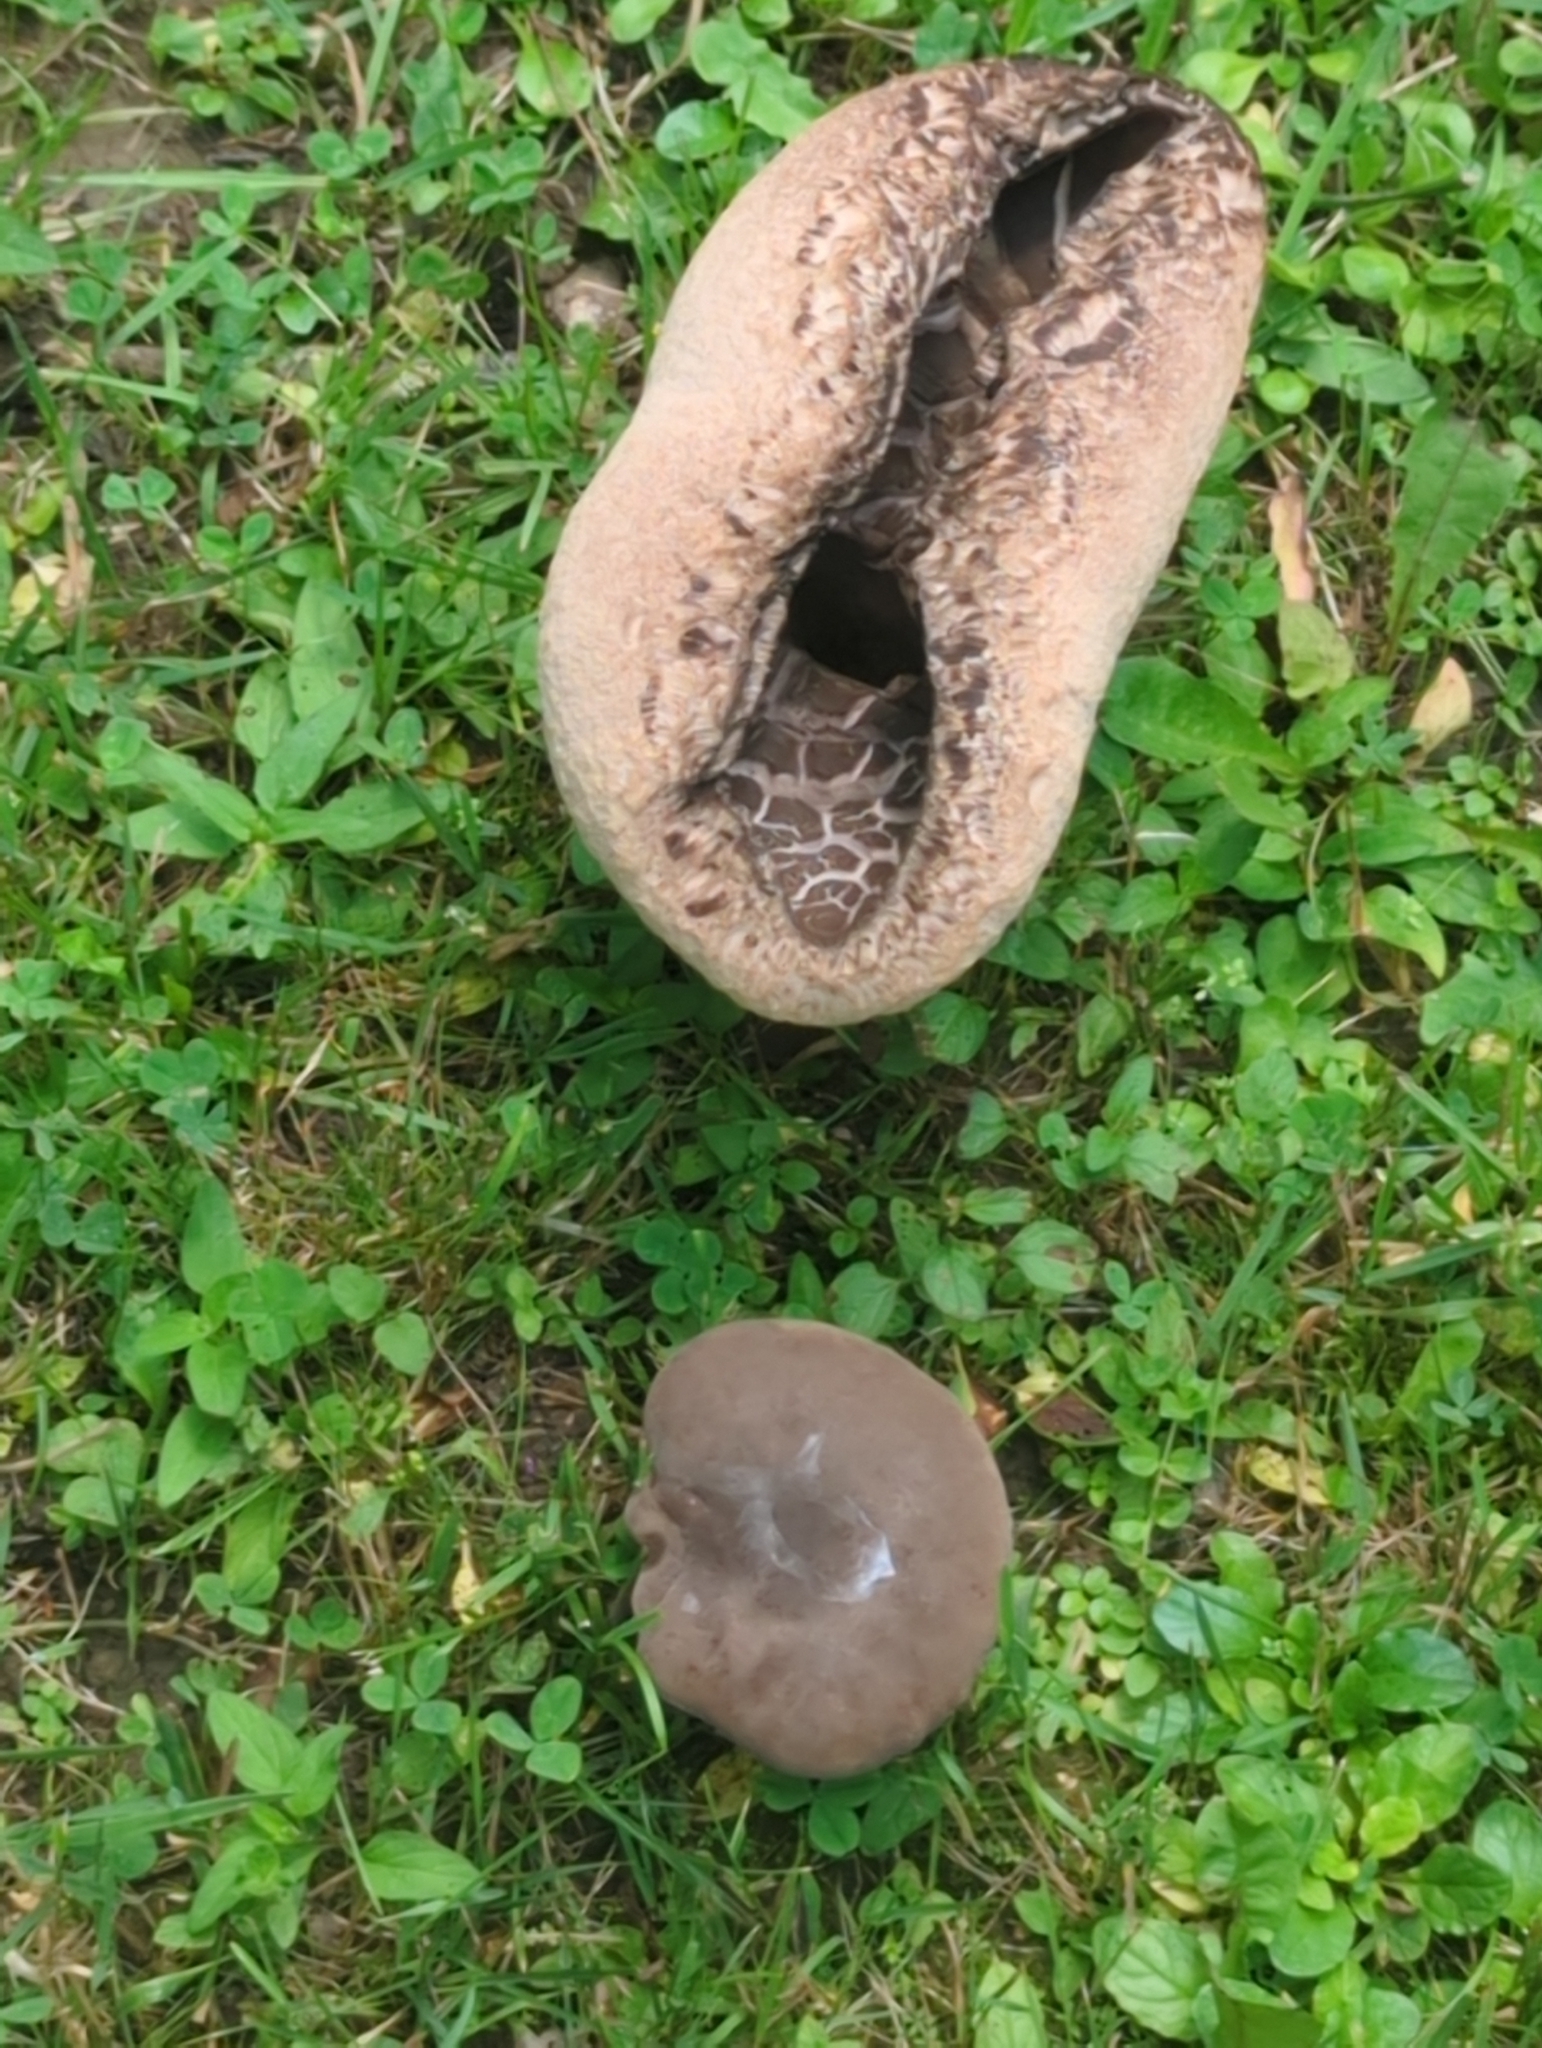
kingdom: Fungi
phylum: Basidiomycota
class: Agaricomycetes
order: Boletales
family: Boletaceae
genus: Tylopilus
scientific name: Tylopilus alboater
